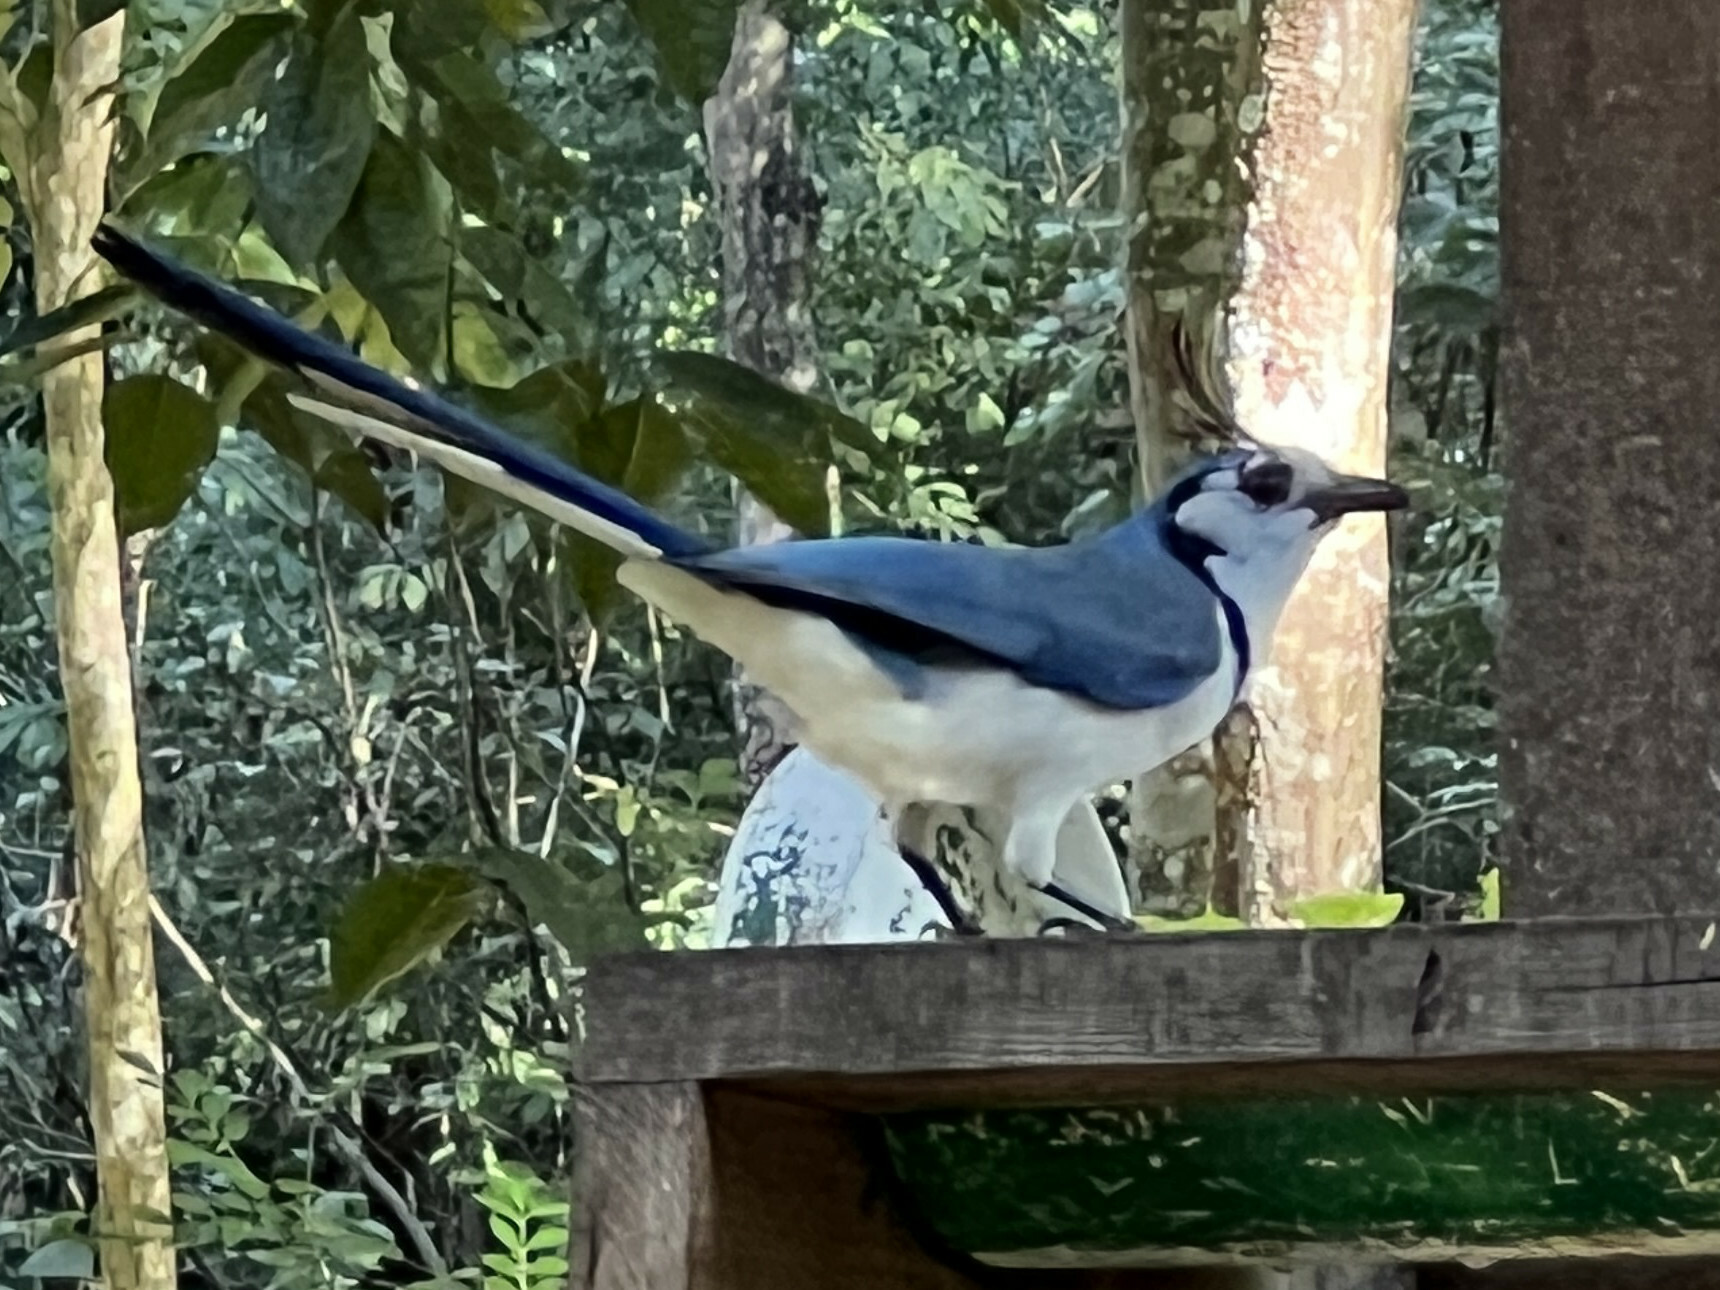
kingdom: Animalia
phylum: Chordata
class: Aves
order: Passeriformes
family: Corvidae
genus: Calocitta
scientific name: Calocitta formosa
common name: White-throated magpie-jay
